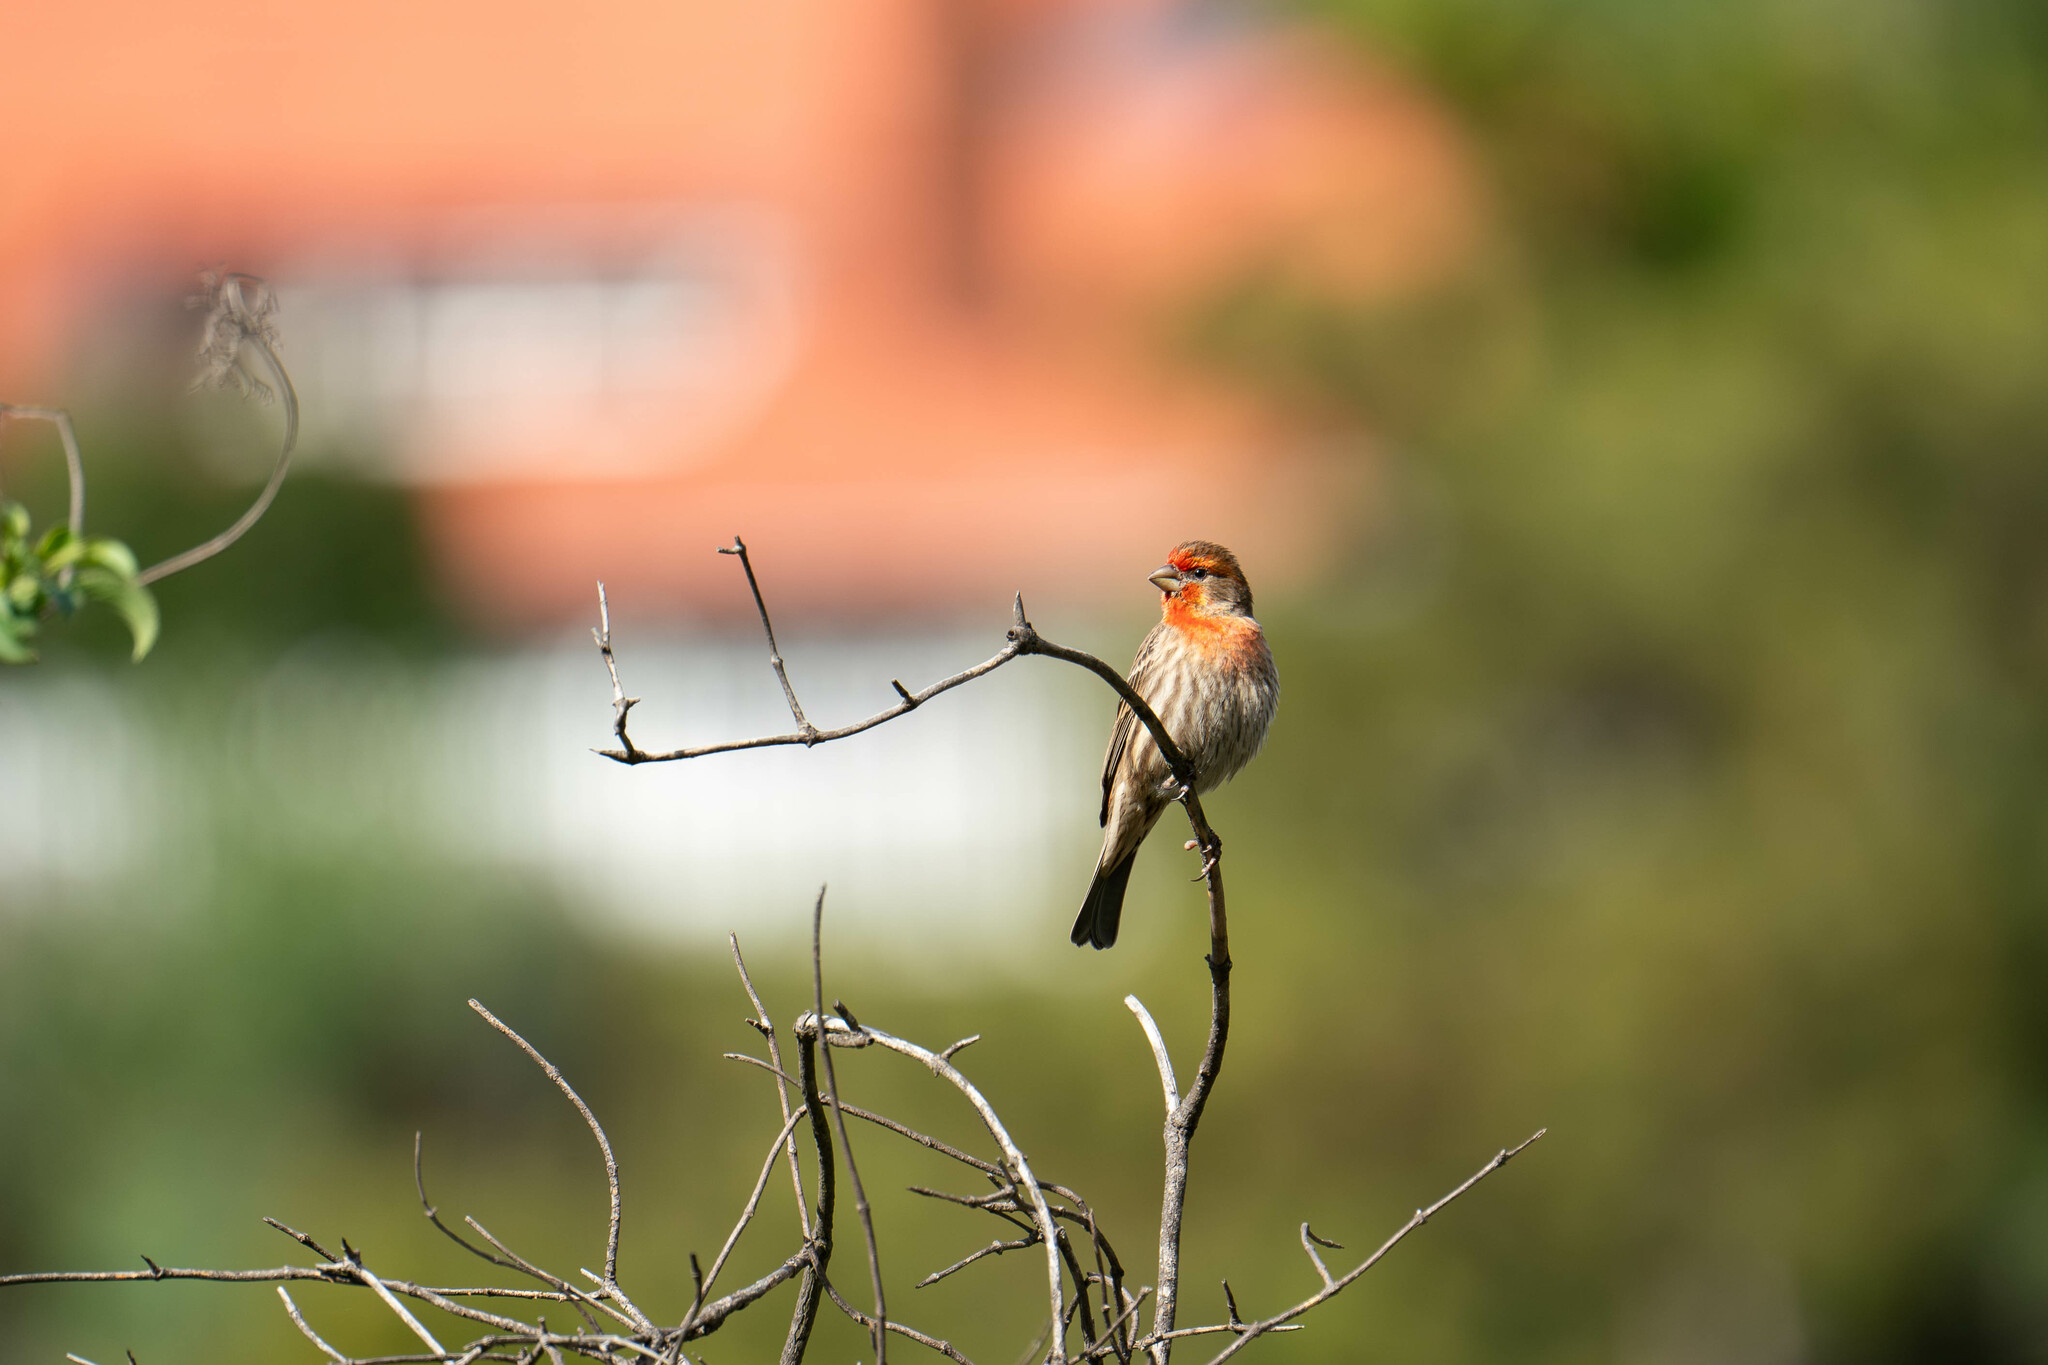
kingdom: Animalia
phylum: Chordata
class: Aves
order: Passeriformes
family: Fringillidae
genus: Haemorhous
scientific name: Haemorhous mexicanus
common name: House finch
